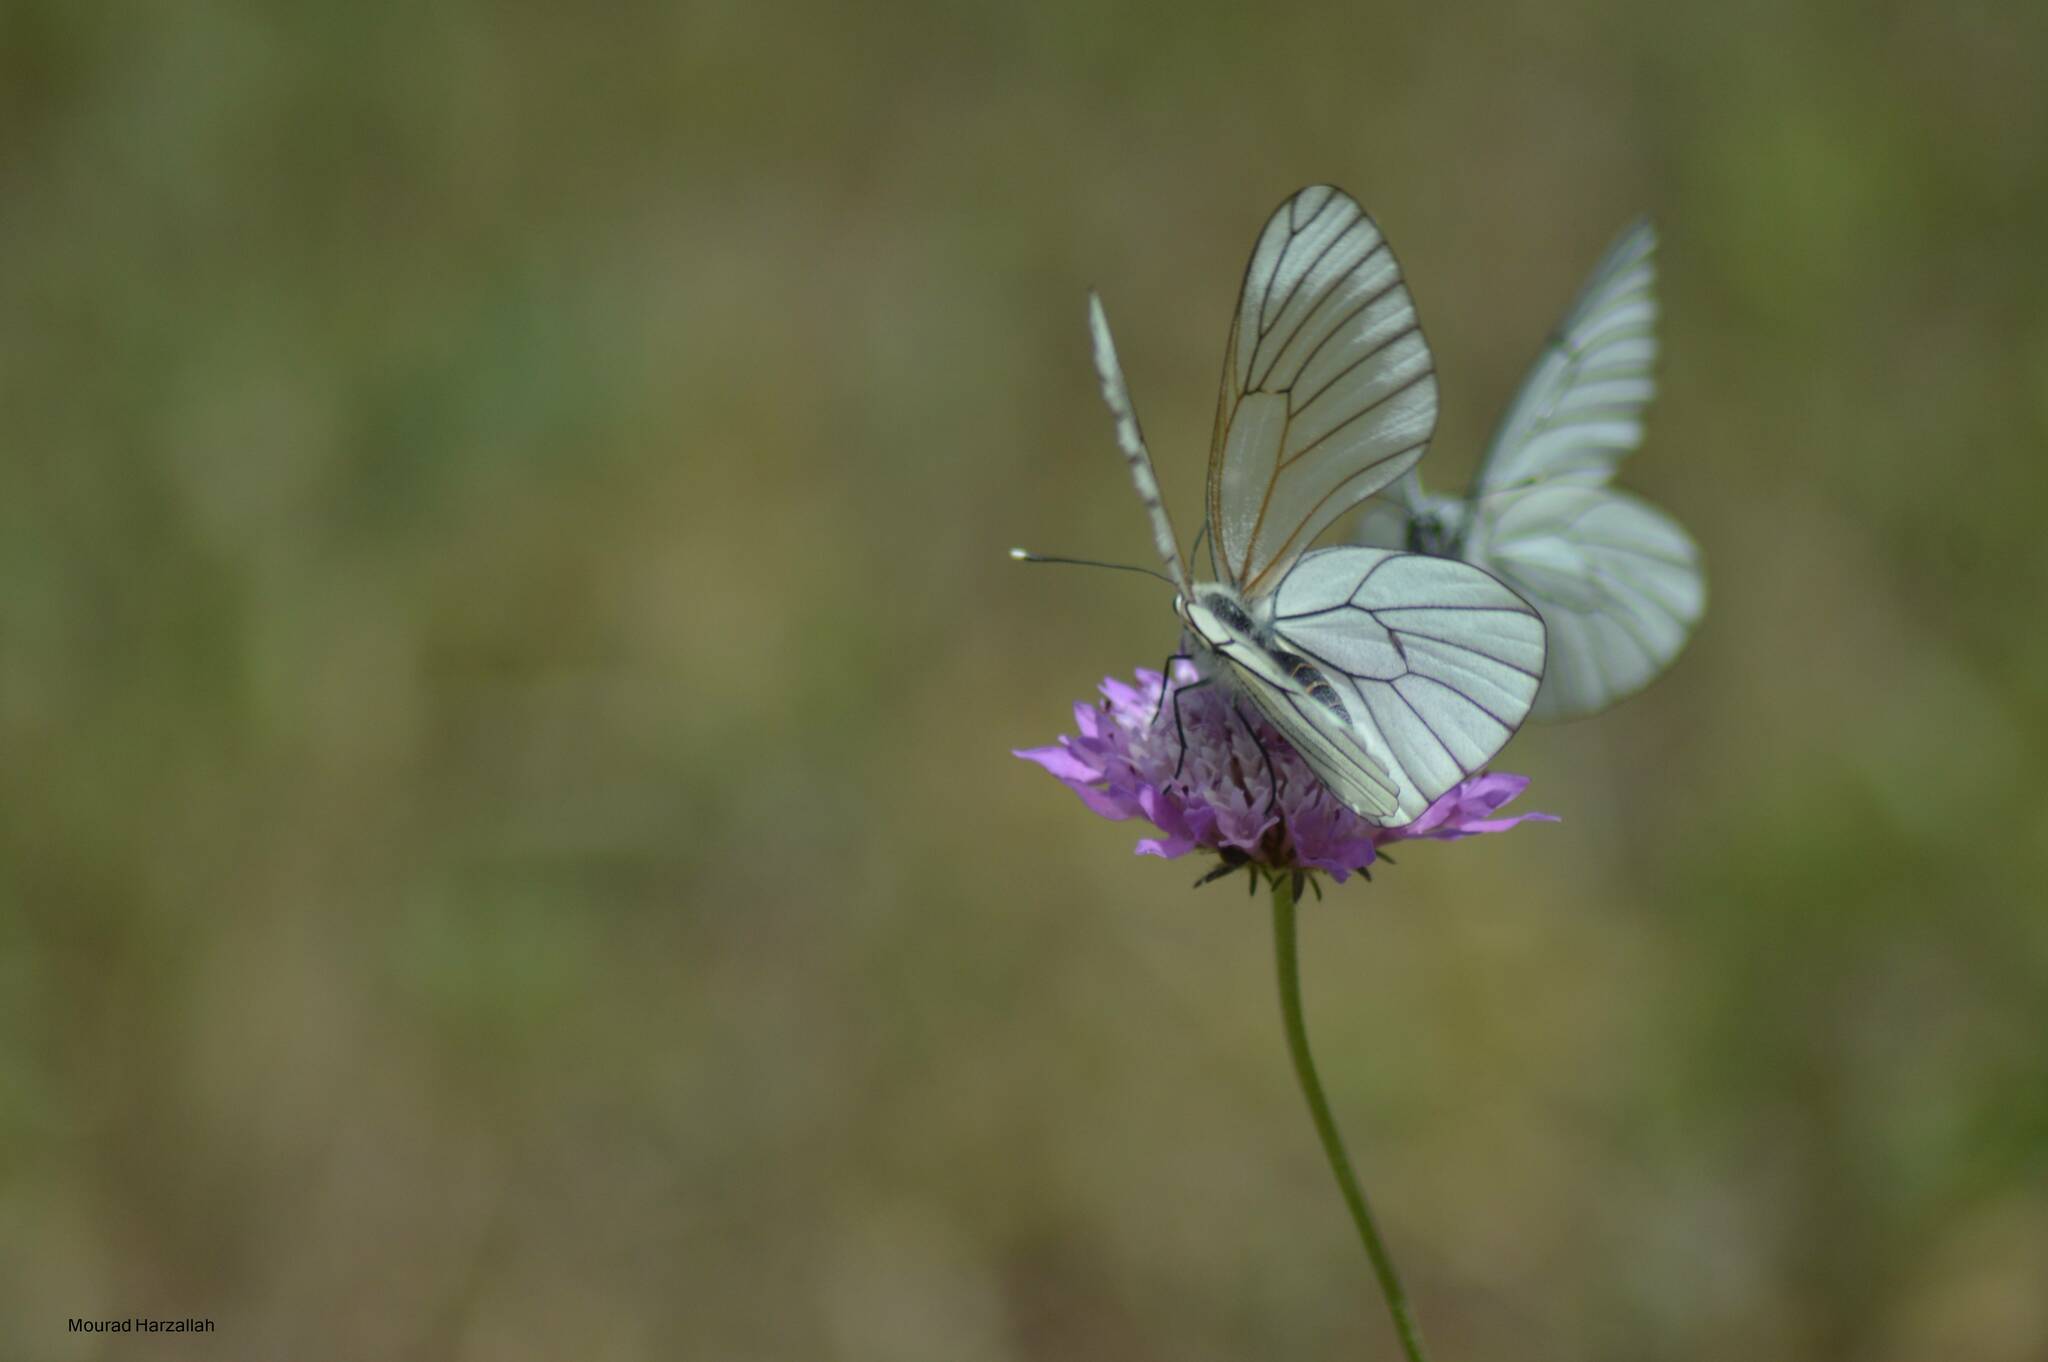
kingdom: Animalia
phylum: Arthropoda
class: Insecta
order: Lepidoptera
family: Pieridae
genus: Aporia
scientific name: Aporia crataegi
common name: Black-veined white
